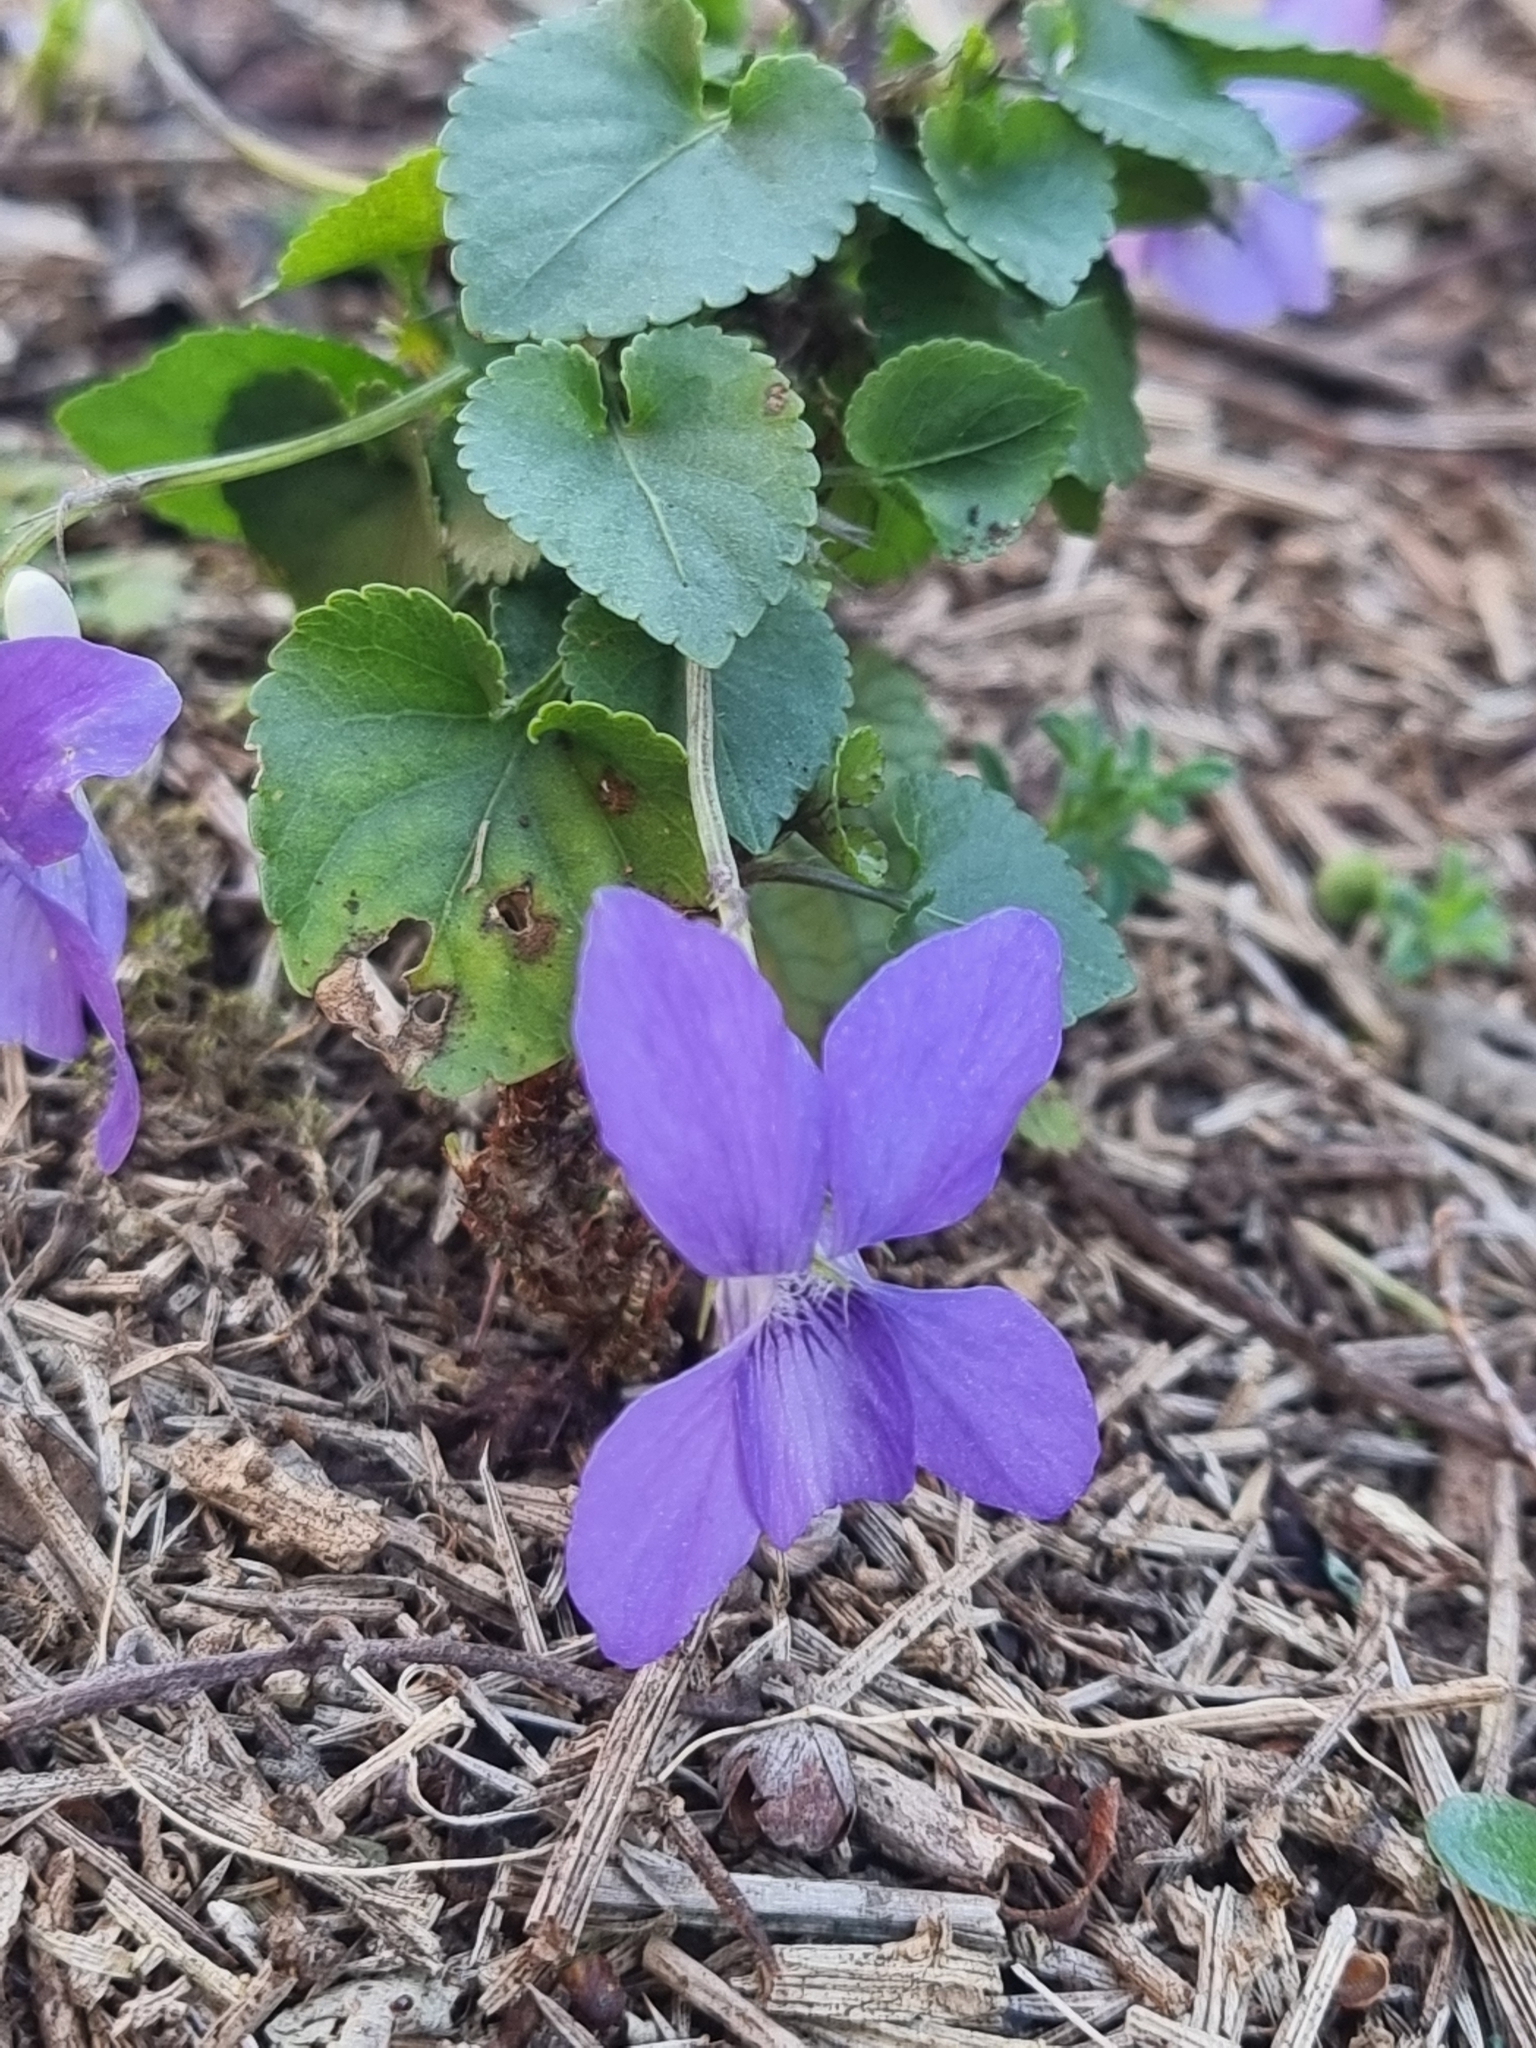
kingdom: Plantae
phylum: Tracheophyta
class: Magnoliopsida
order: Malpighiales
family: Violaceae
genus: Viola
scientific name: Viola riviniana
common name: Common dog-violet
